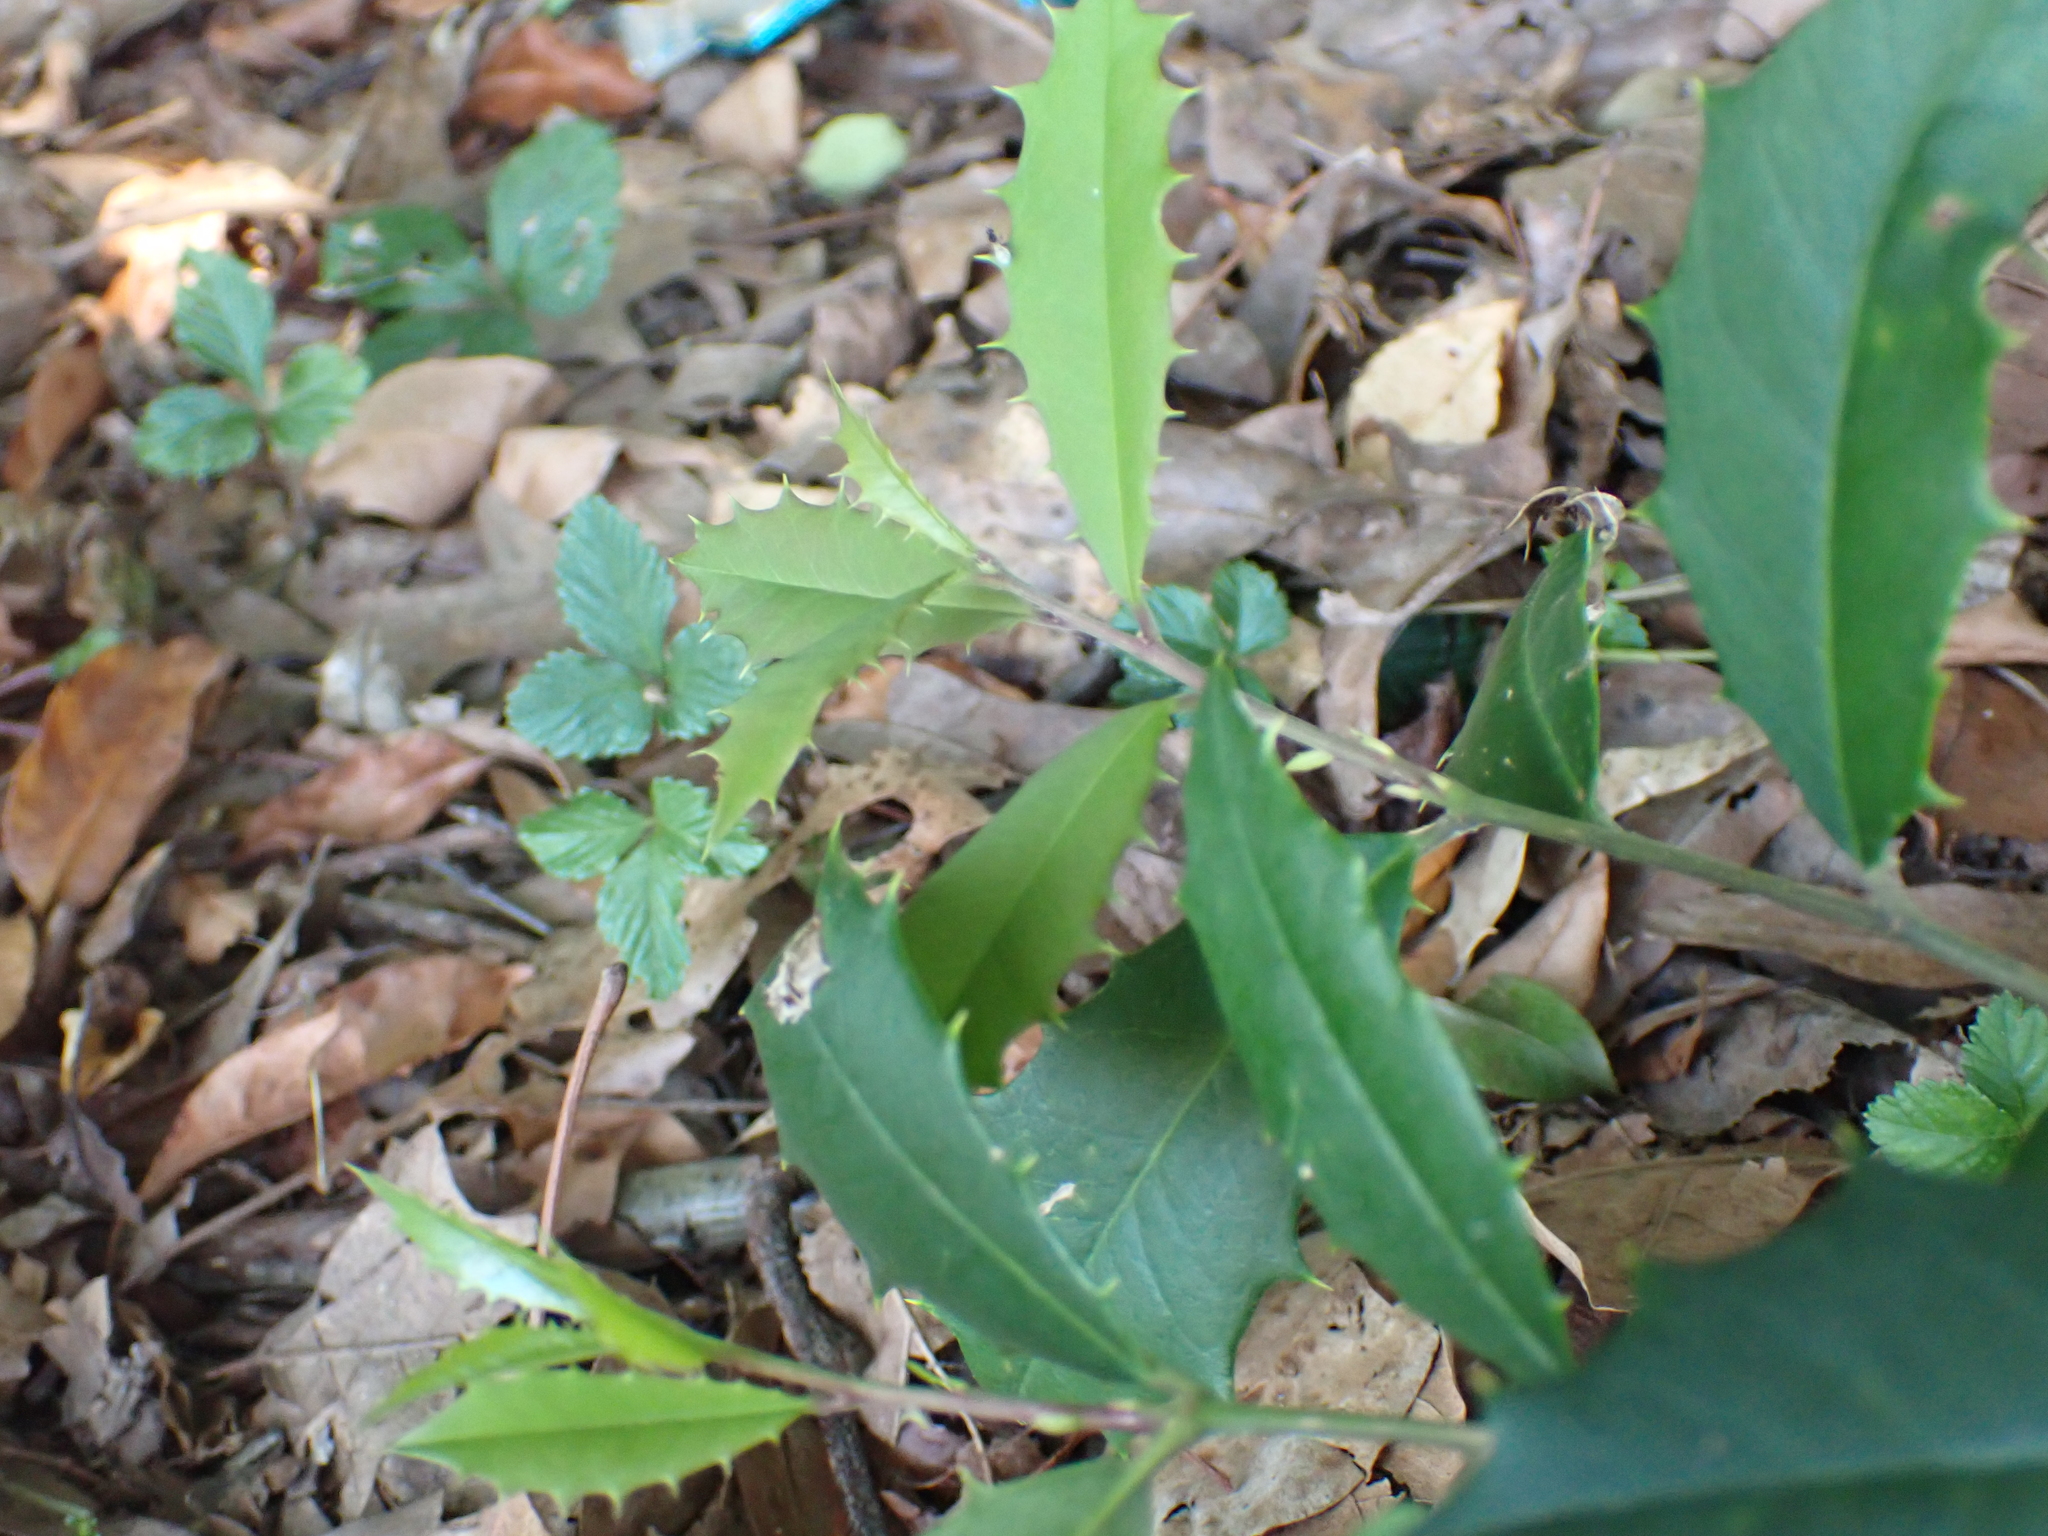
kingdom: Plantae
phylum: Tracheophyta
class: Magnoliopsida
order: Aquifoliales
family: Aquifoliaceae
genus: Ilex
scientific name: Ilex opaca
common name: American holly
